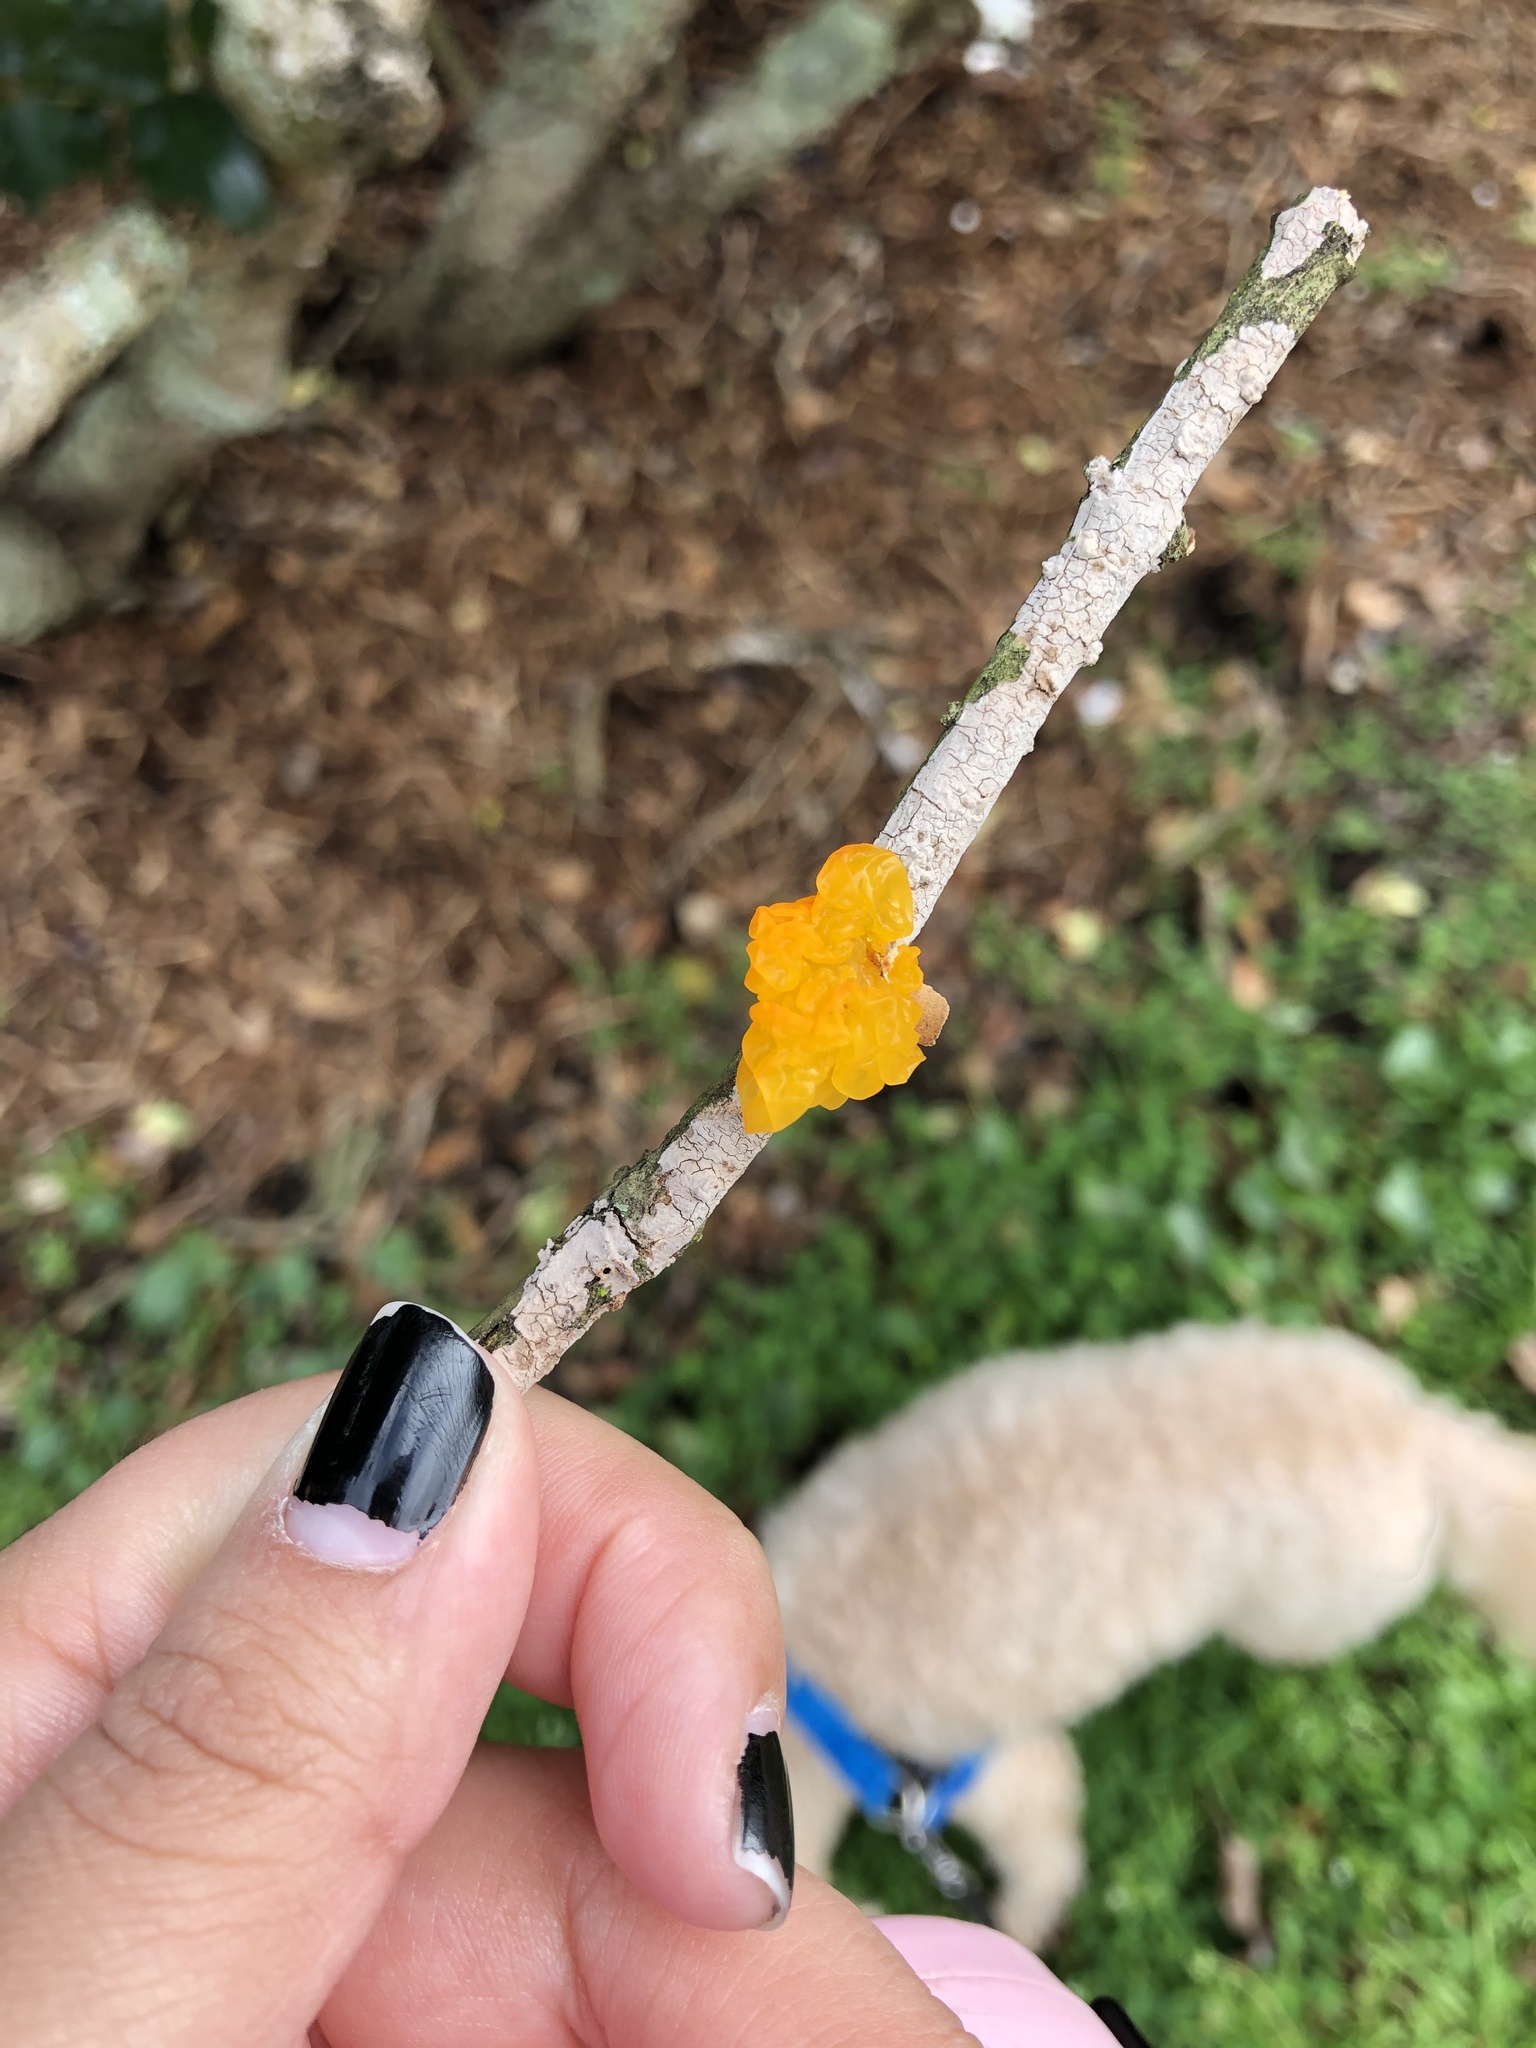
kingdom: Fungi
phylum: Basidiomycota
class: Tremellomycetes
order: Tremellales
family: Tremellaceae
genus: Tremella
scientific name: Tremella mesenterica
